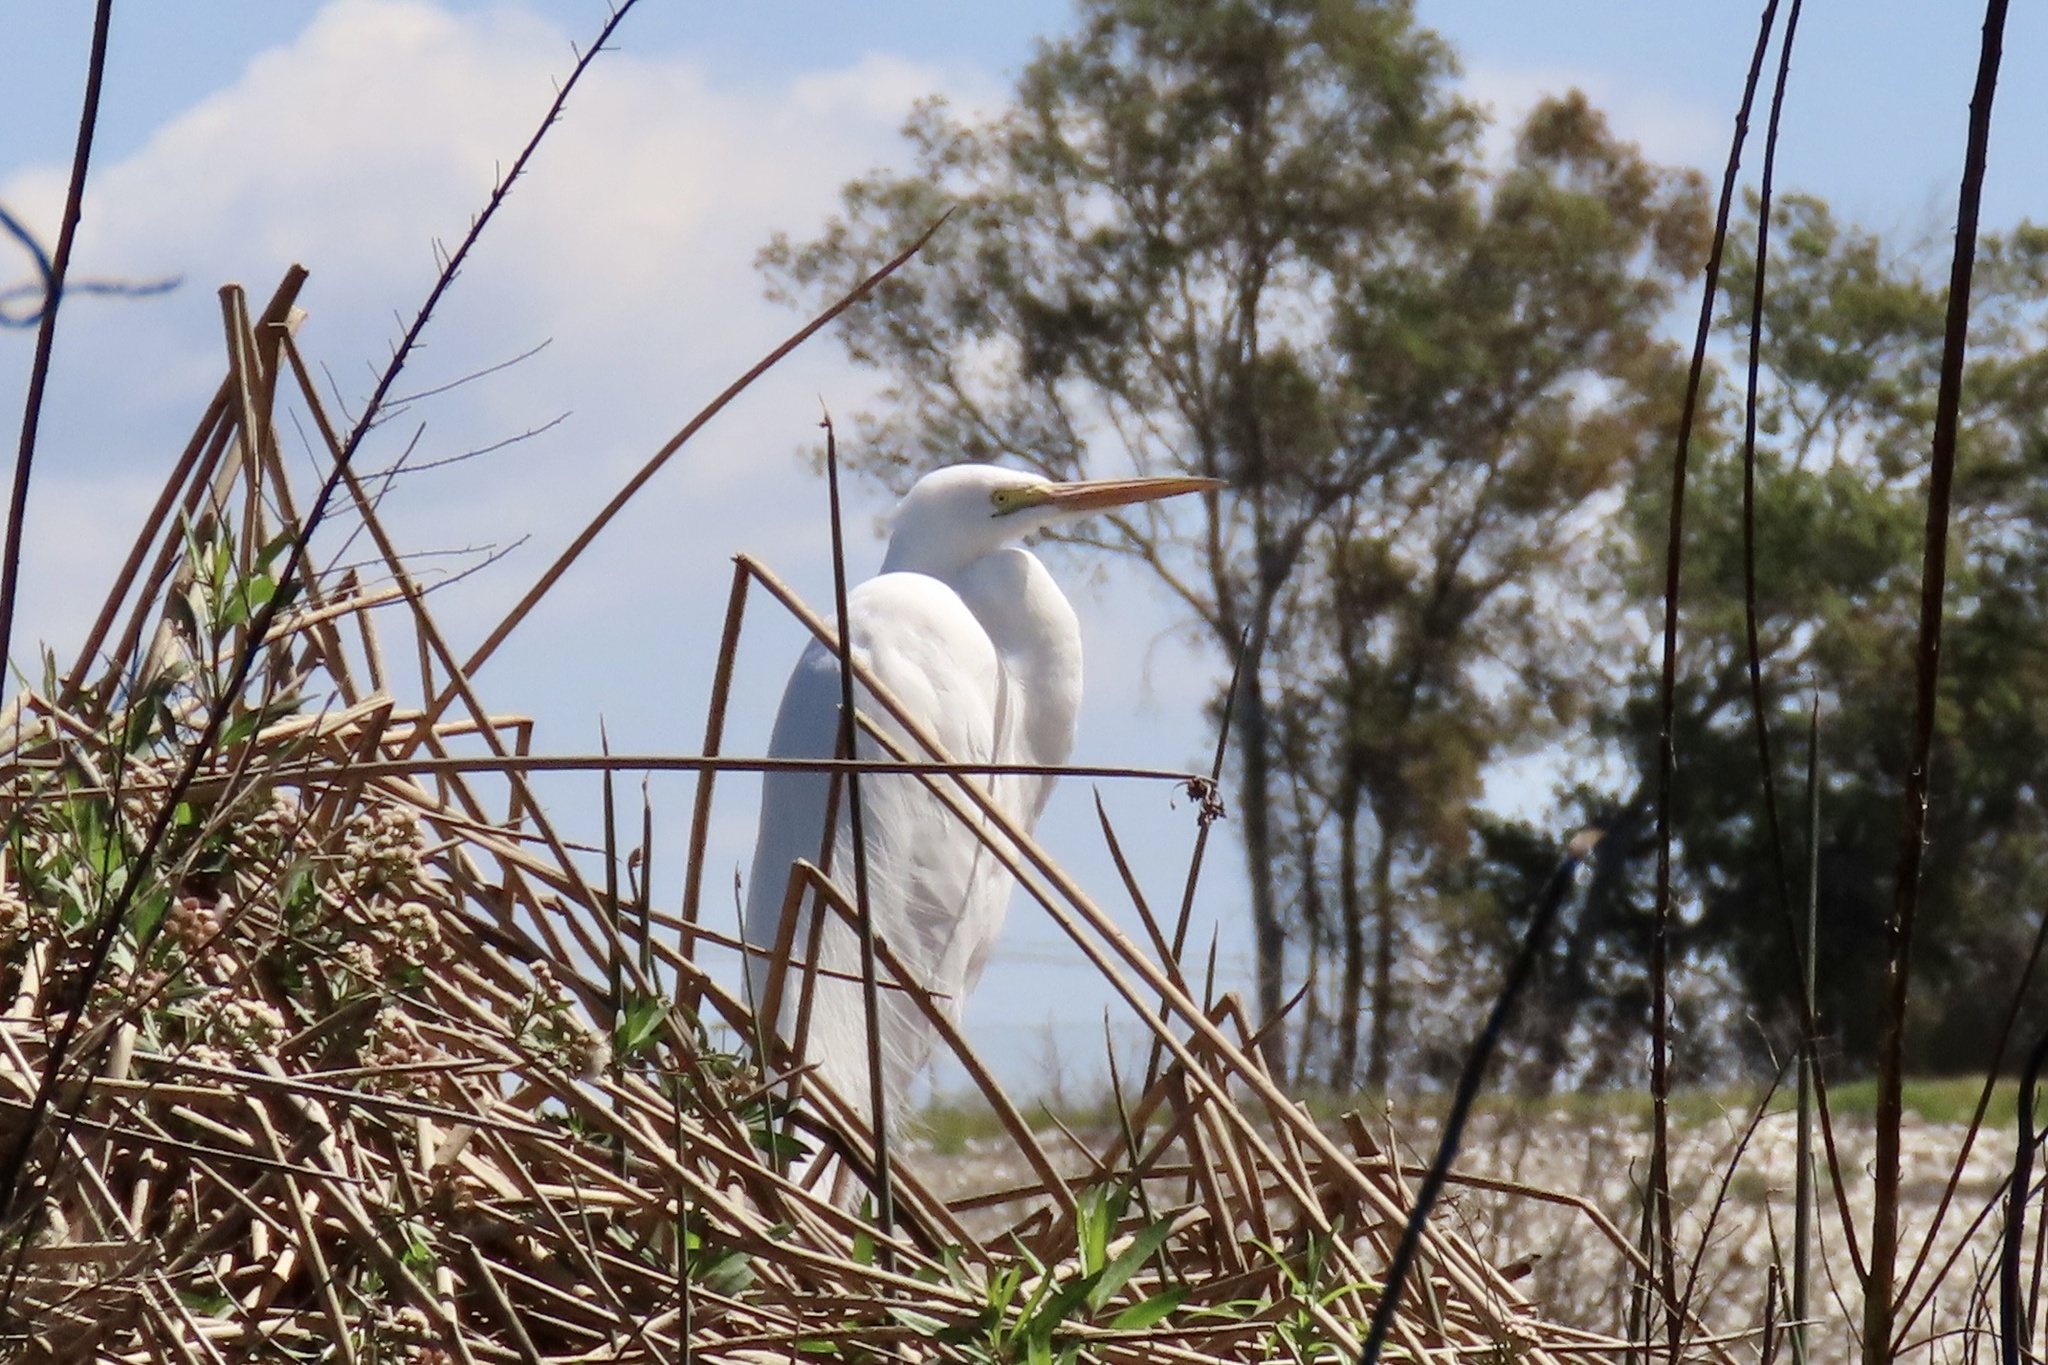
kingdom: Animalia
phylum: Chordata
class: Aves
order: Pelecaniformes
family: Ardeidae
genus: Ardea
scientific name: Ardea alba
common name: Great egret
